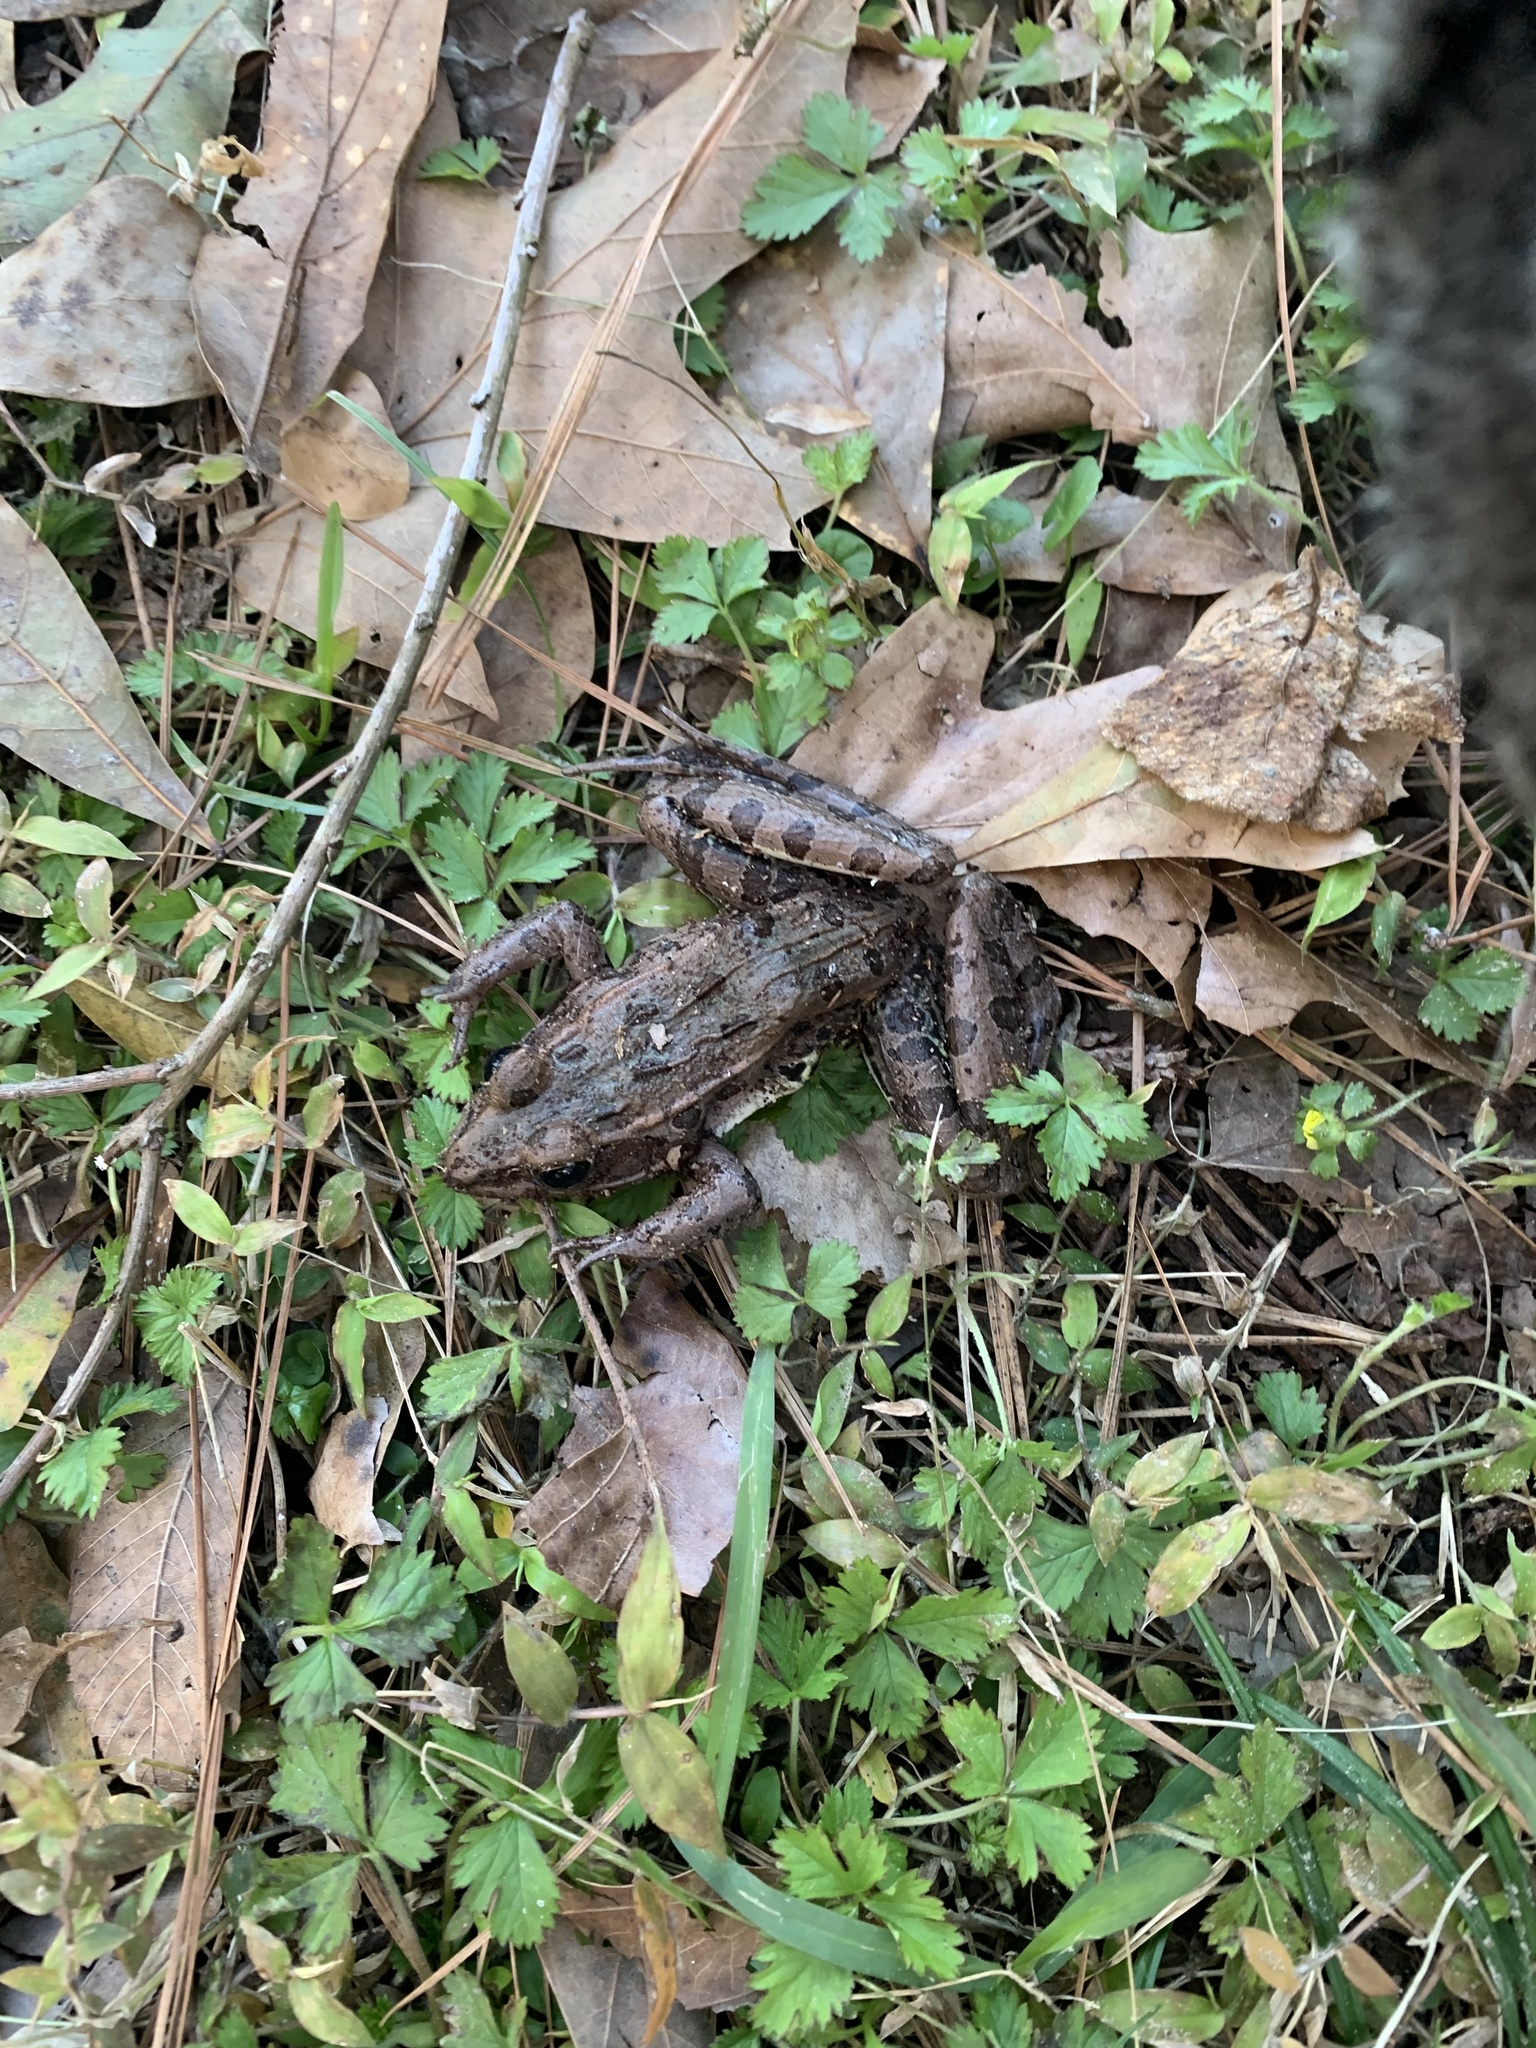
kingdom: Animalia
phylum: Chordata
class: Amphibia
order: Anura
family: Ranidae
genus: Lithobates
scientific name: Lithobates sphenocephalus
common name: Southern leopard frog
